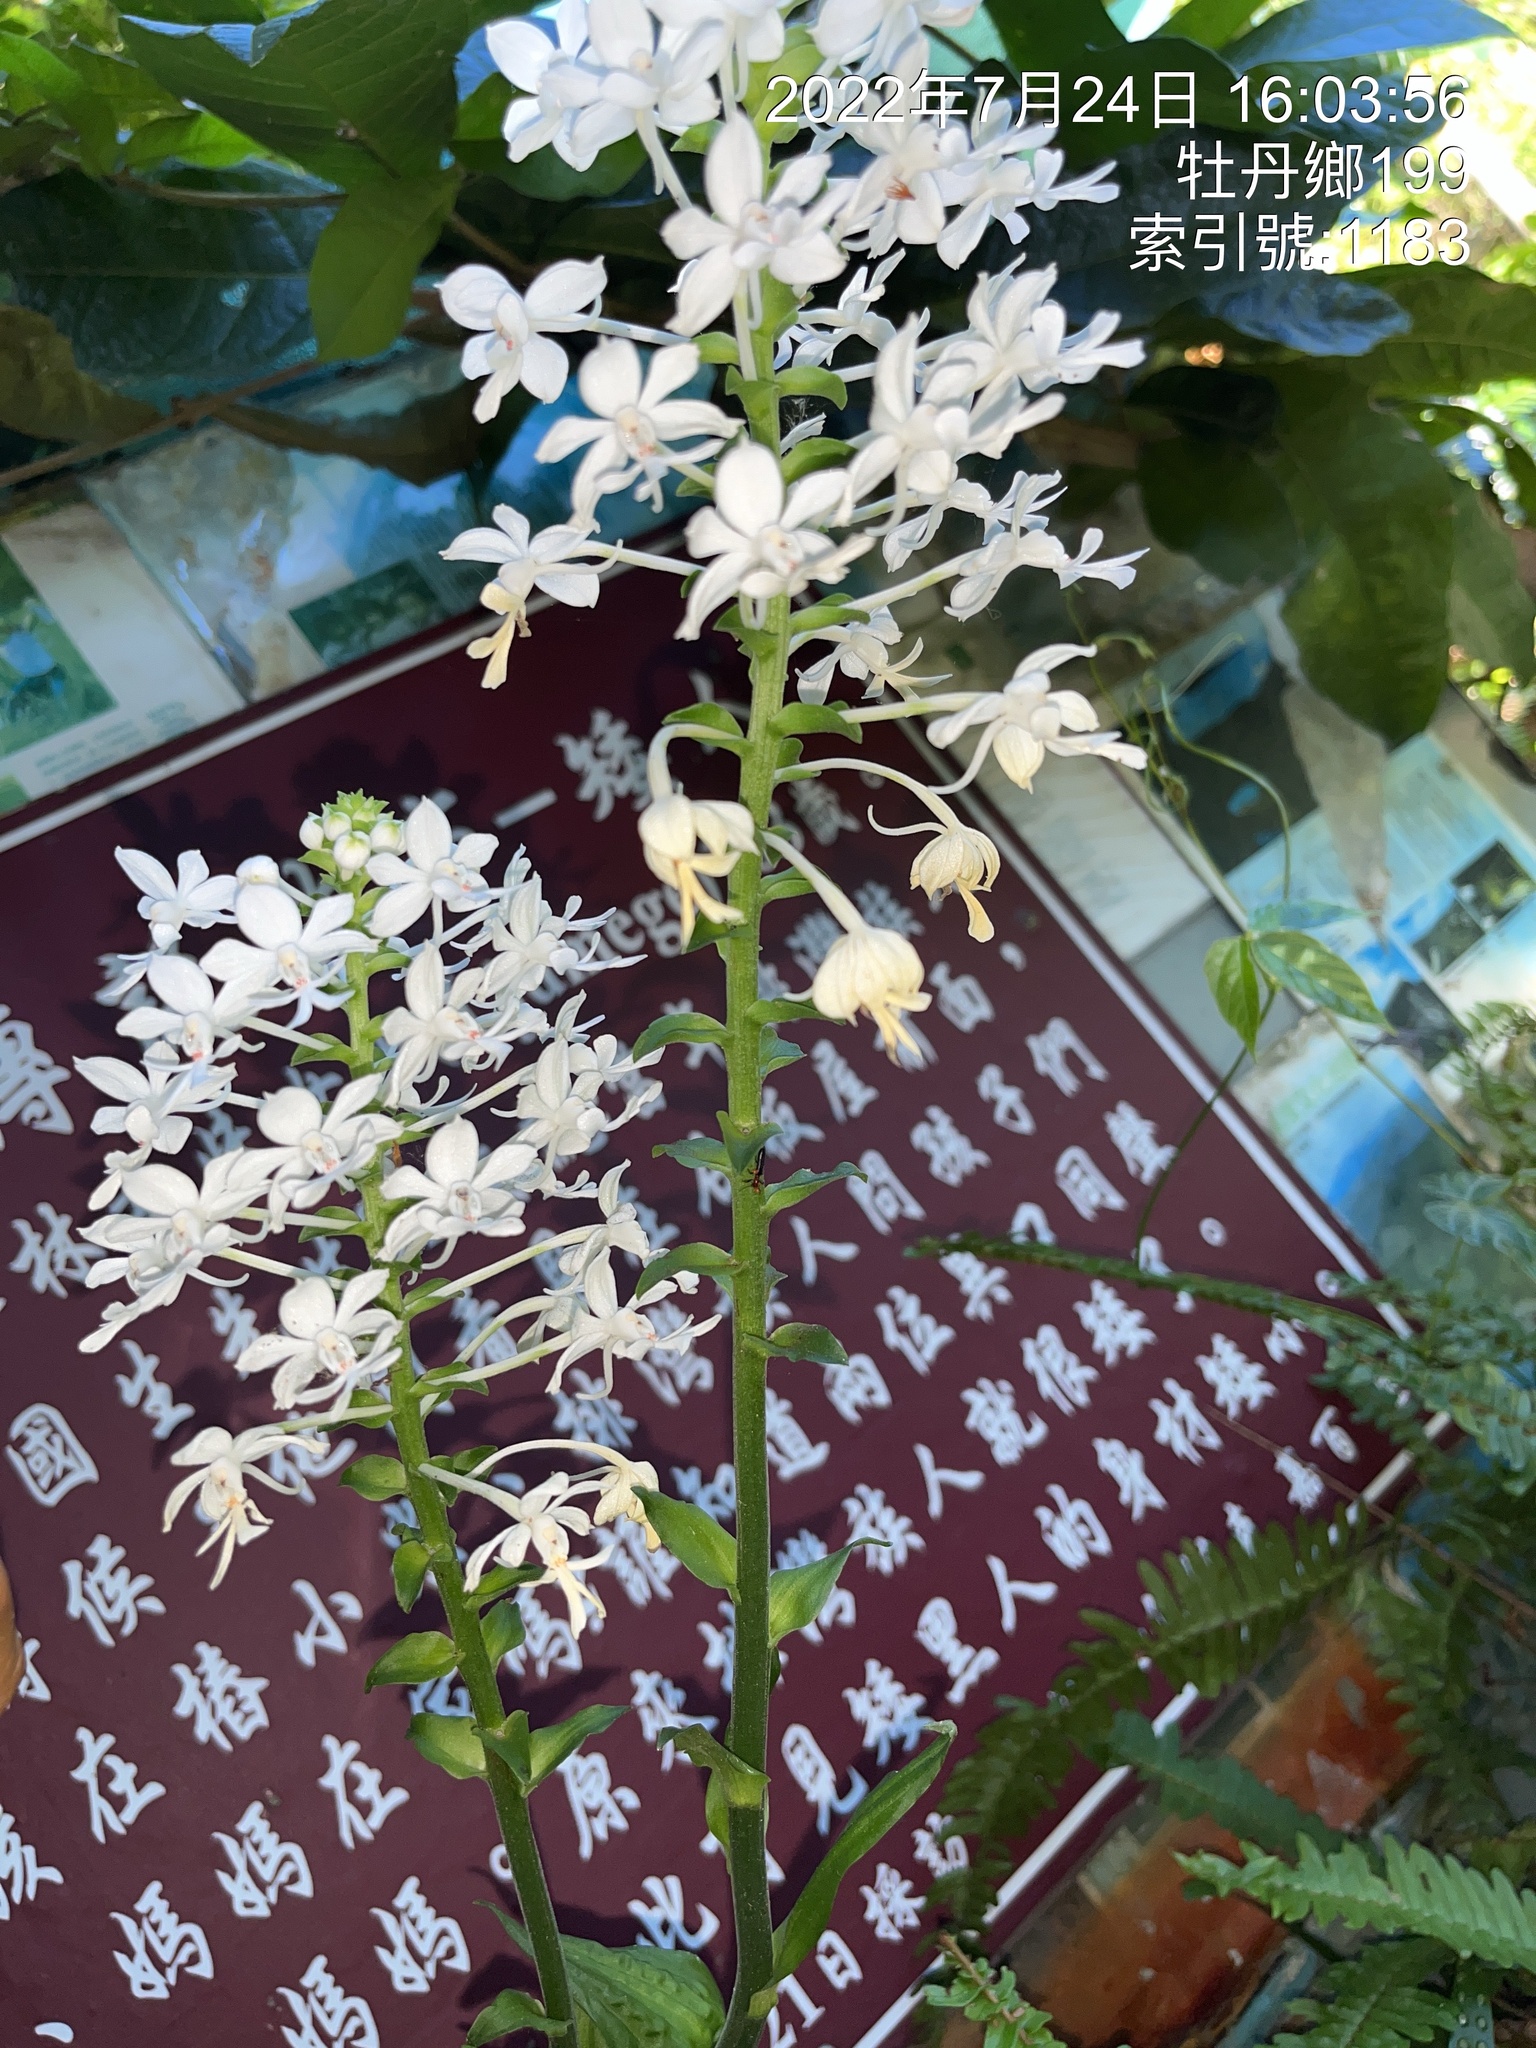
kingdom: Plantae
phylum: Tracheophyta
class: Liliopsida
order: Asparagales
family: Orchidaceae
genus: Calanthe
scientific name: Calanthe triplicata
